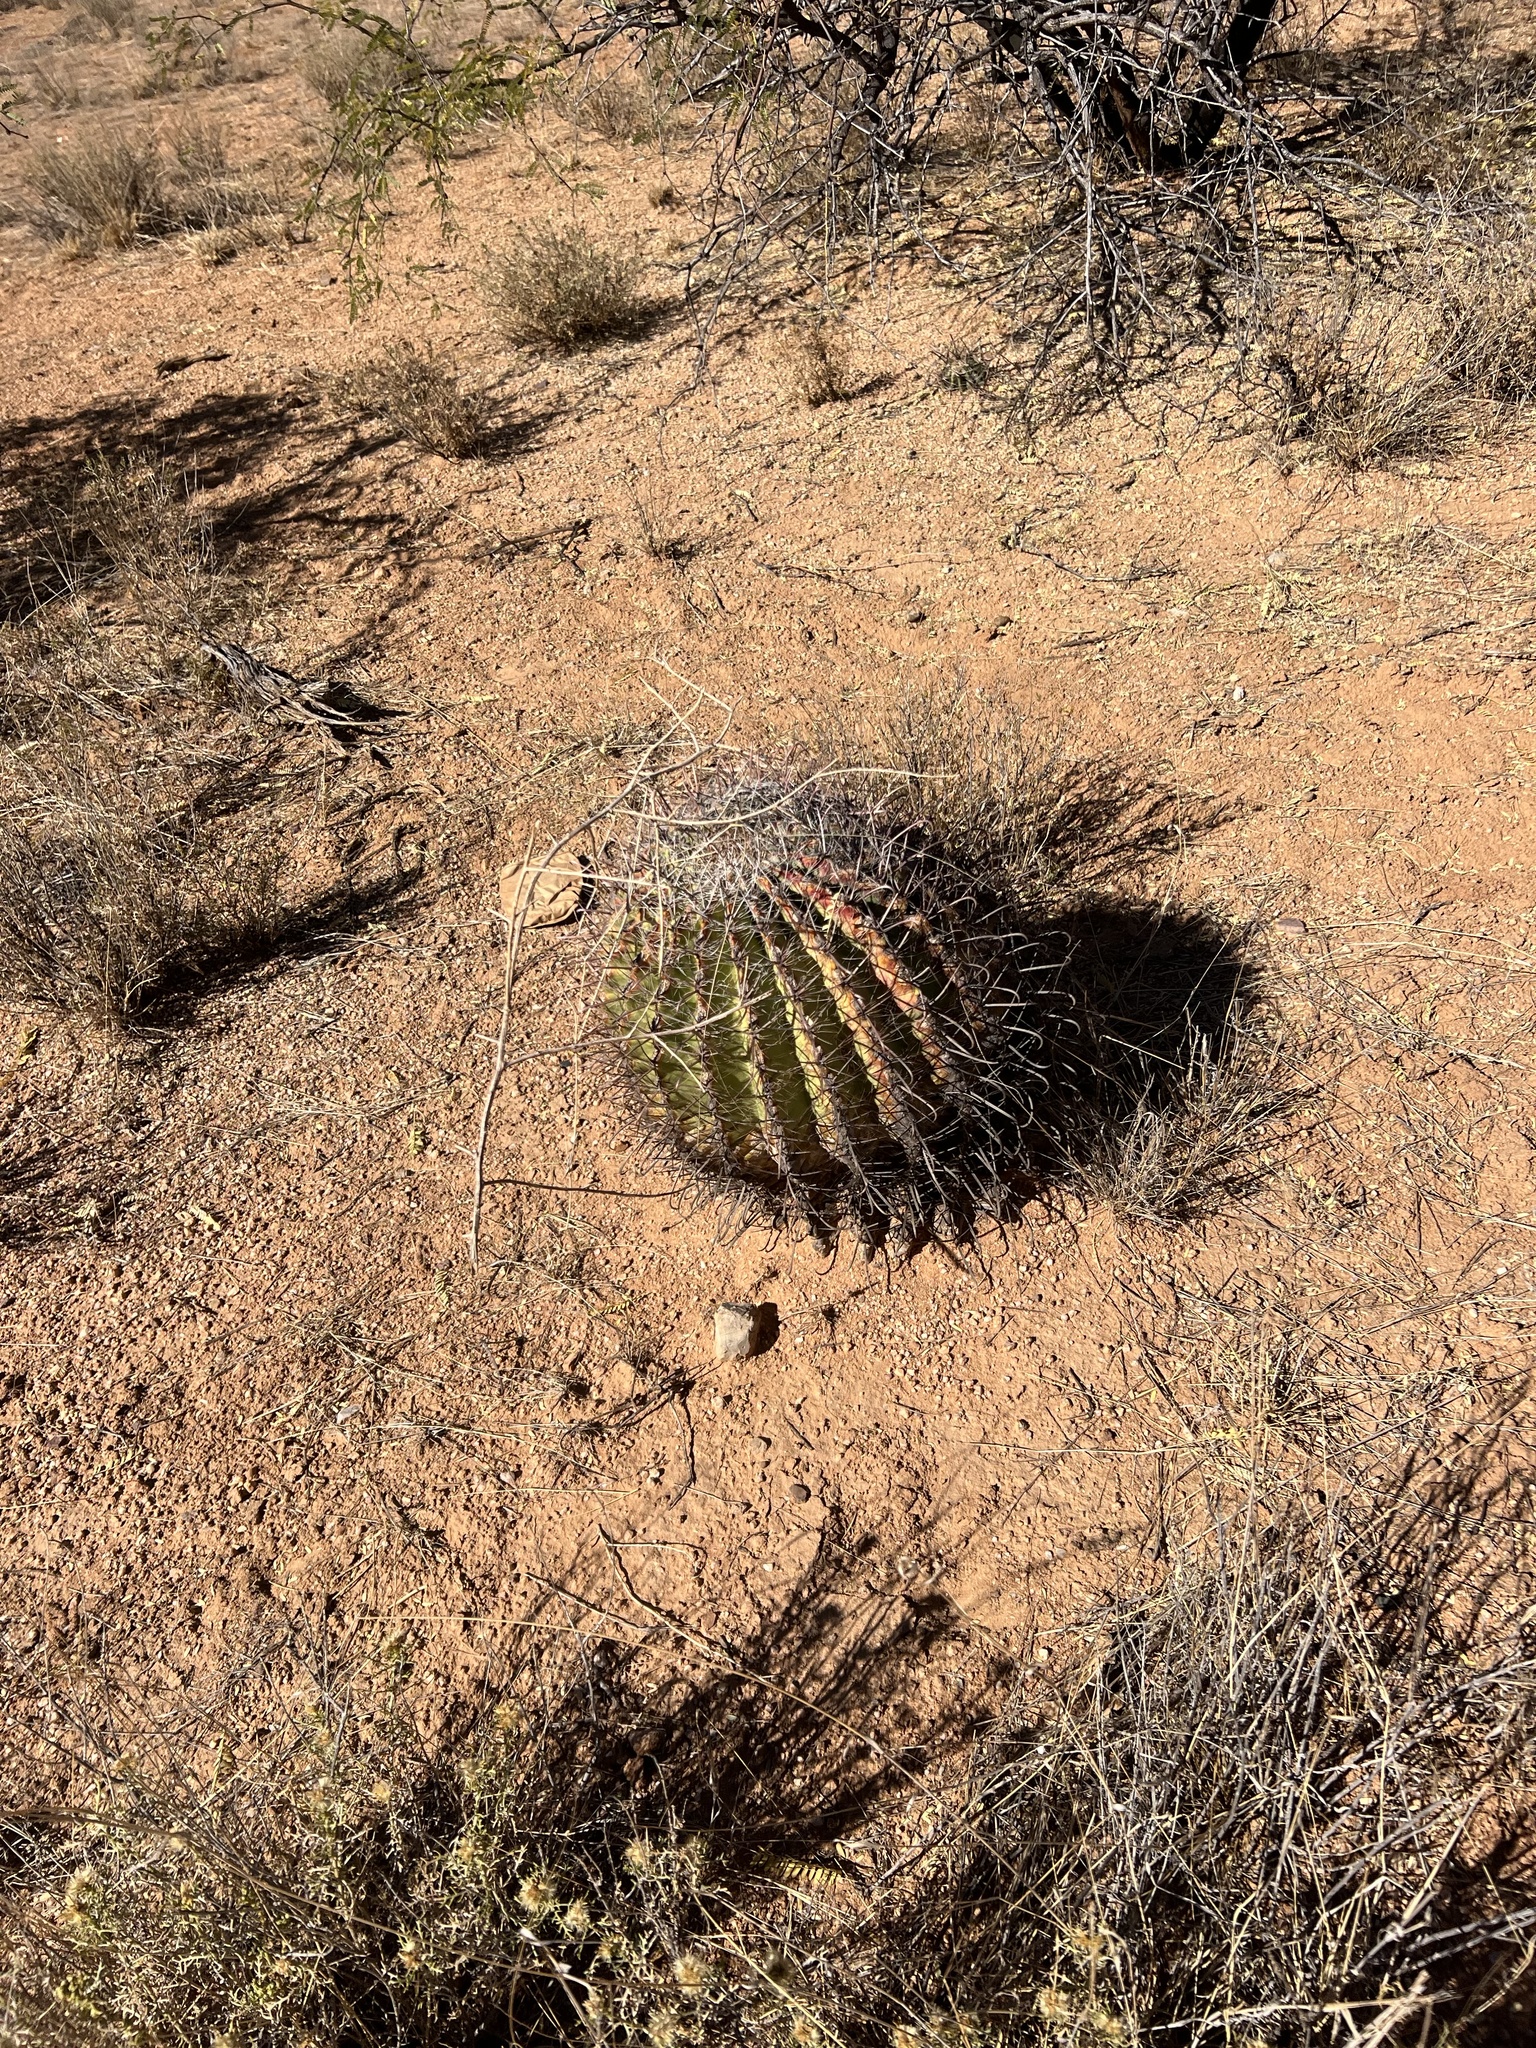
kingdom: Plantae
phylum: Tracheophyta
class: Magnoliopsida
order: Caryophyllales
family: Cactaceae
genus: Ferocactus
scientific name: Ferocactus wislizeni
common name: Candy barrel cactus
